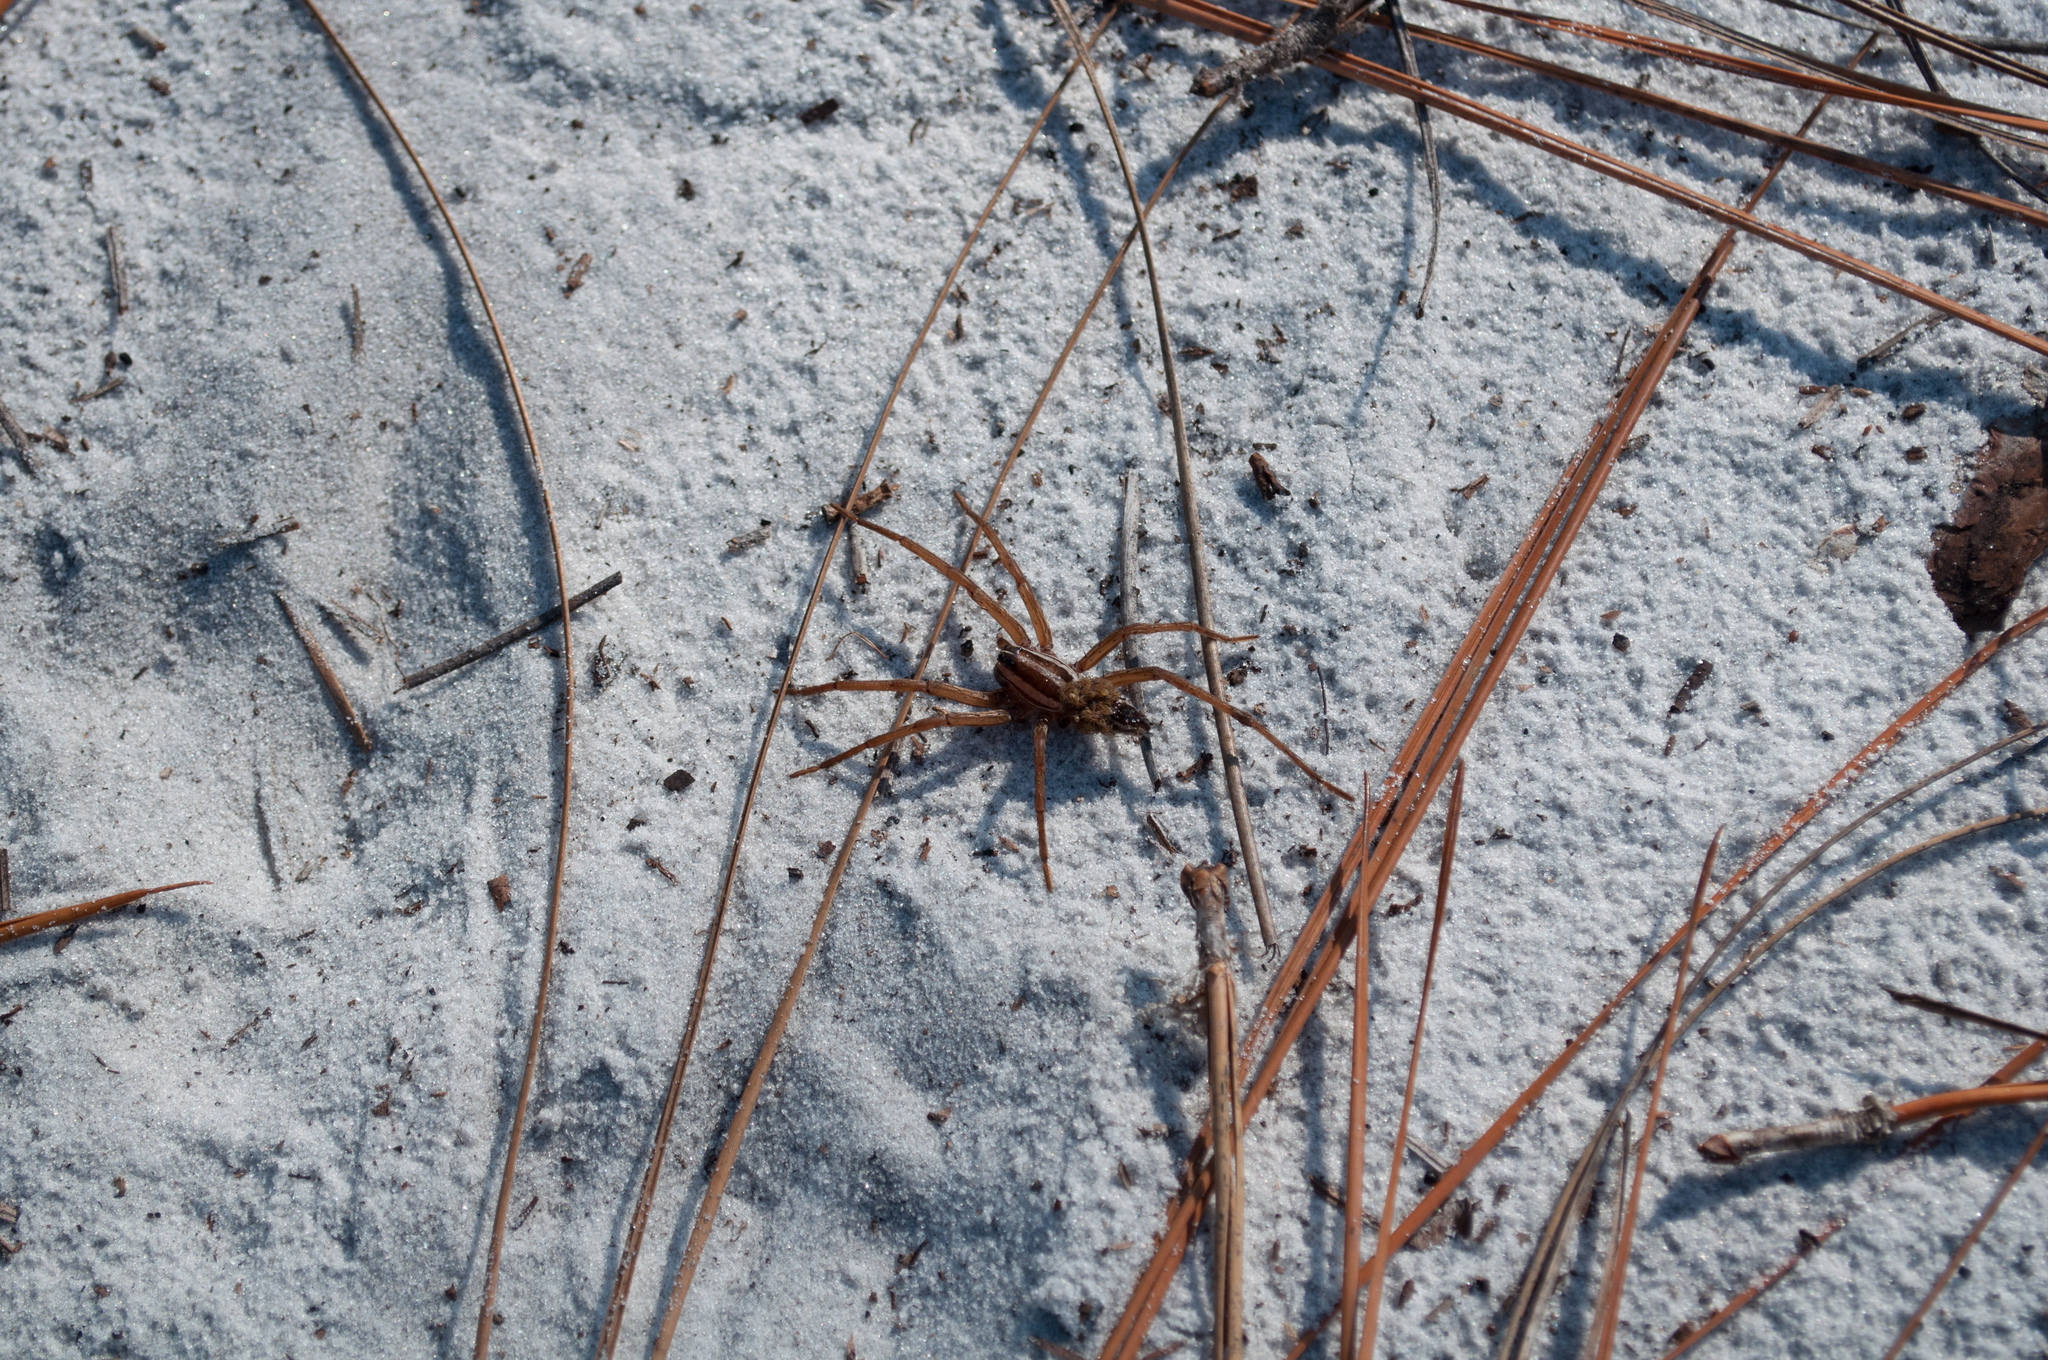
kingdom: Animalia
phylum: Arthropoda
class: Arachnida
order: Araneae
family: Lycosidae
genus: Rabidosa
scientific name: Rabidosa
